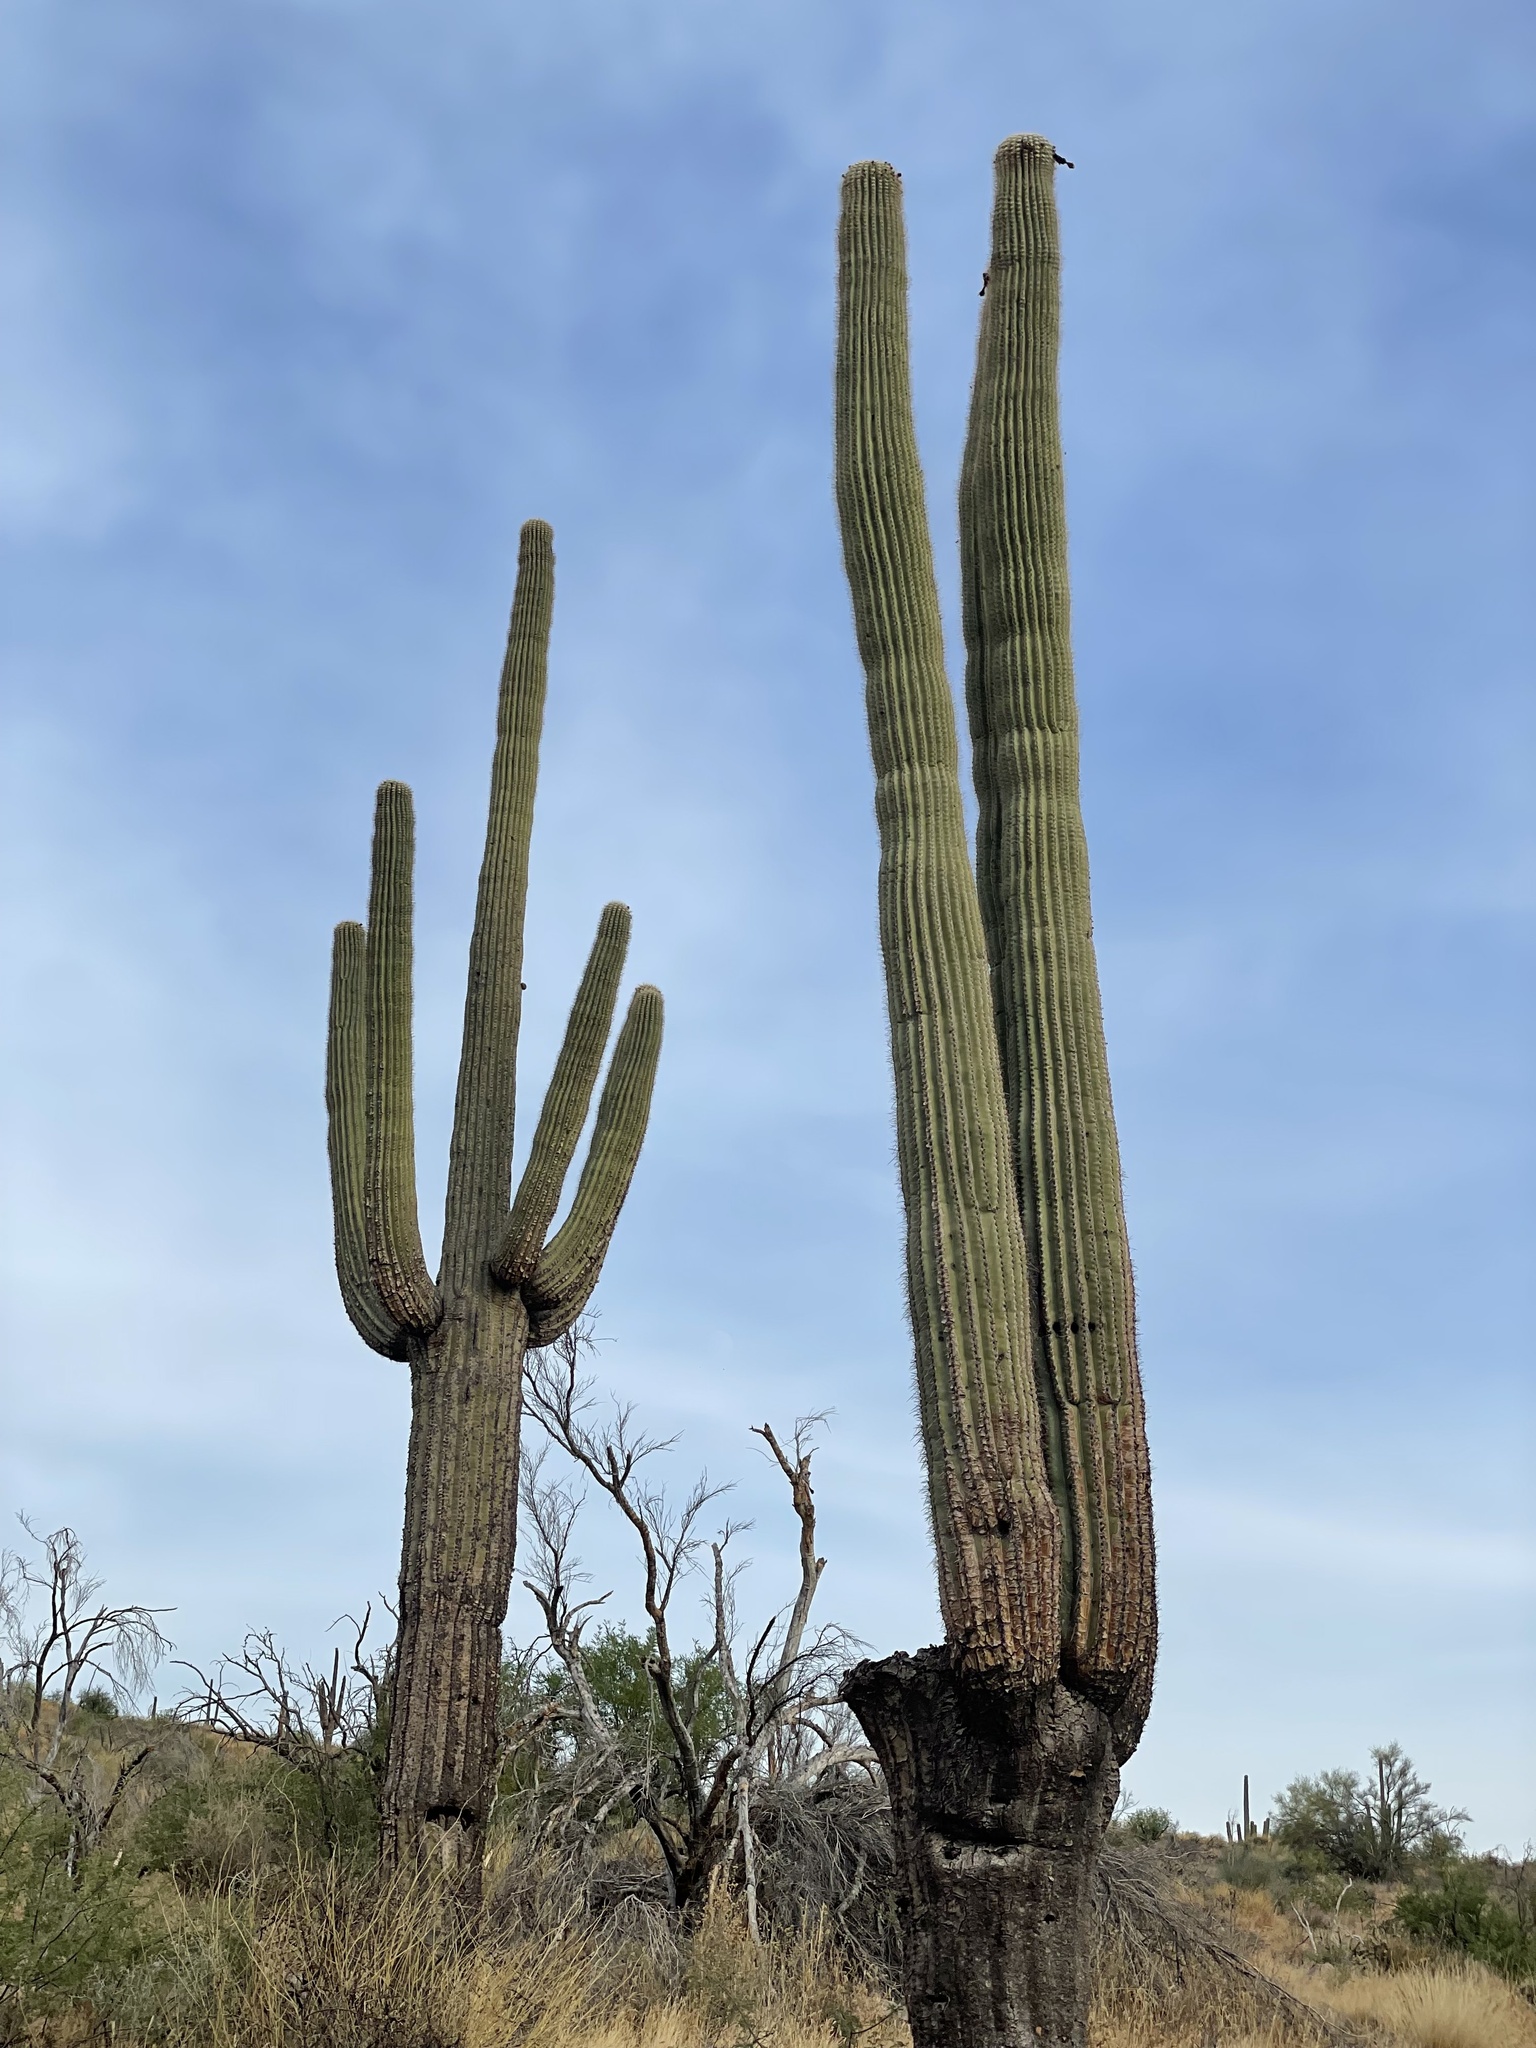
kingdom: Plantae
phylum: Tracheophyta
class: Magnoliopsida
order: Caryophyllales
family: Cactaceae
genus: Carnegiea
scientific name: Carnegiea gigantea
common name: Saguaro
